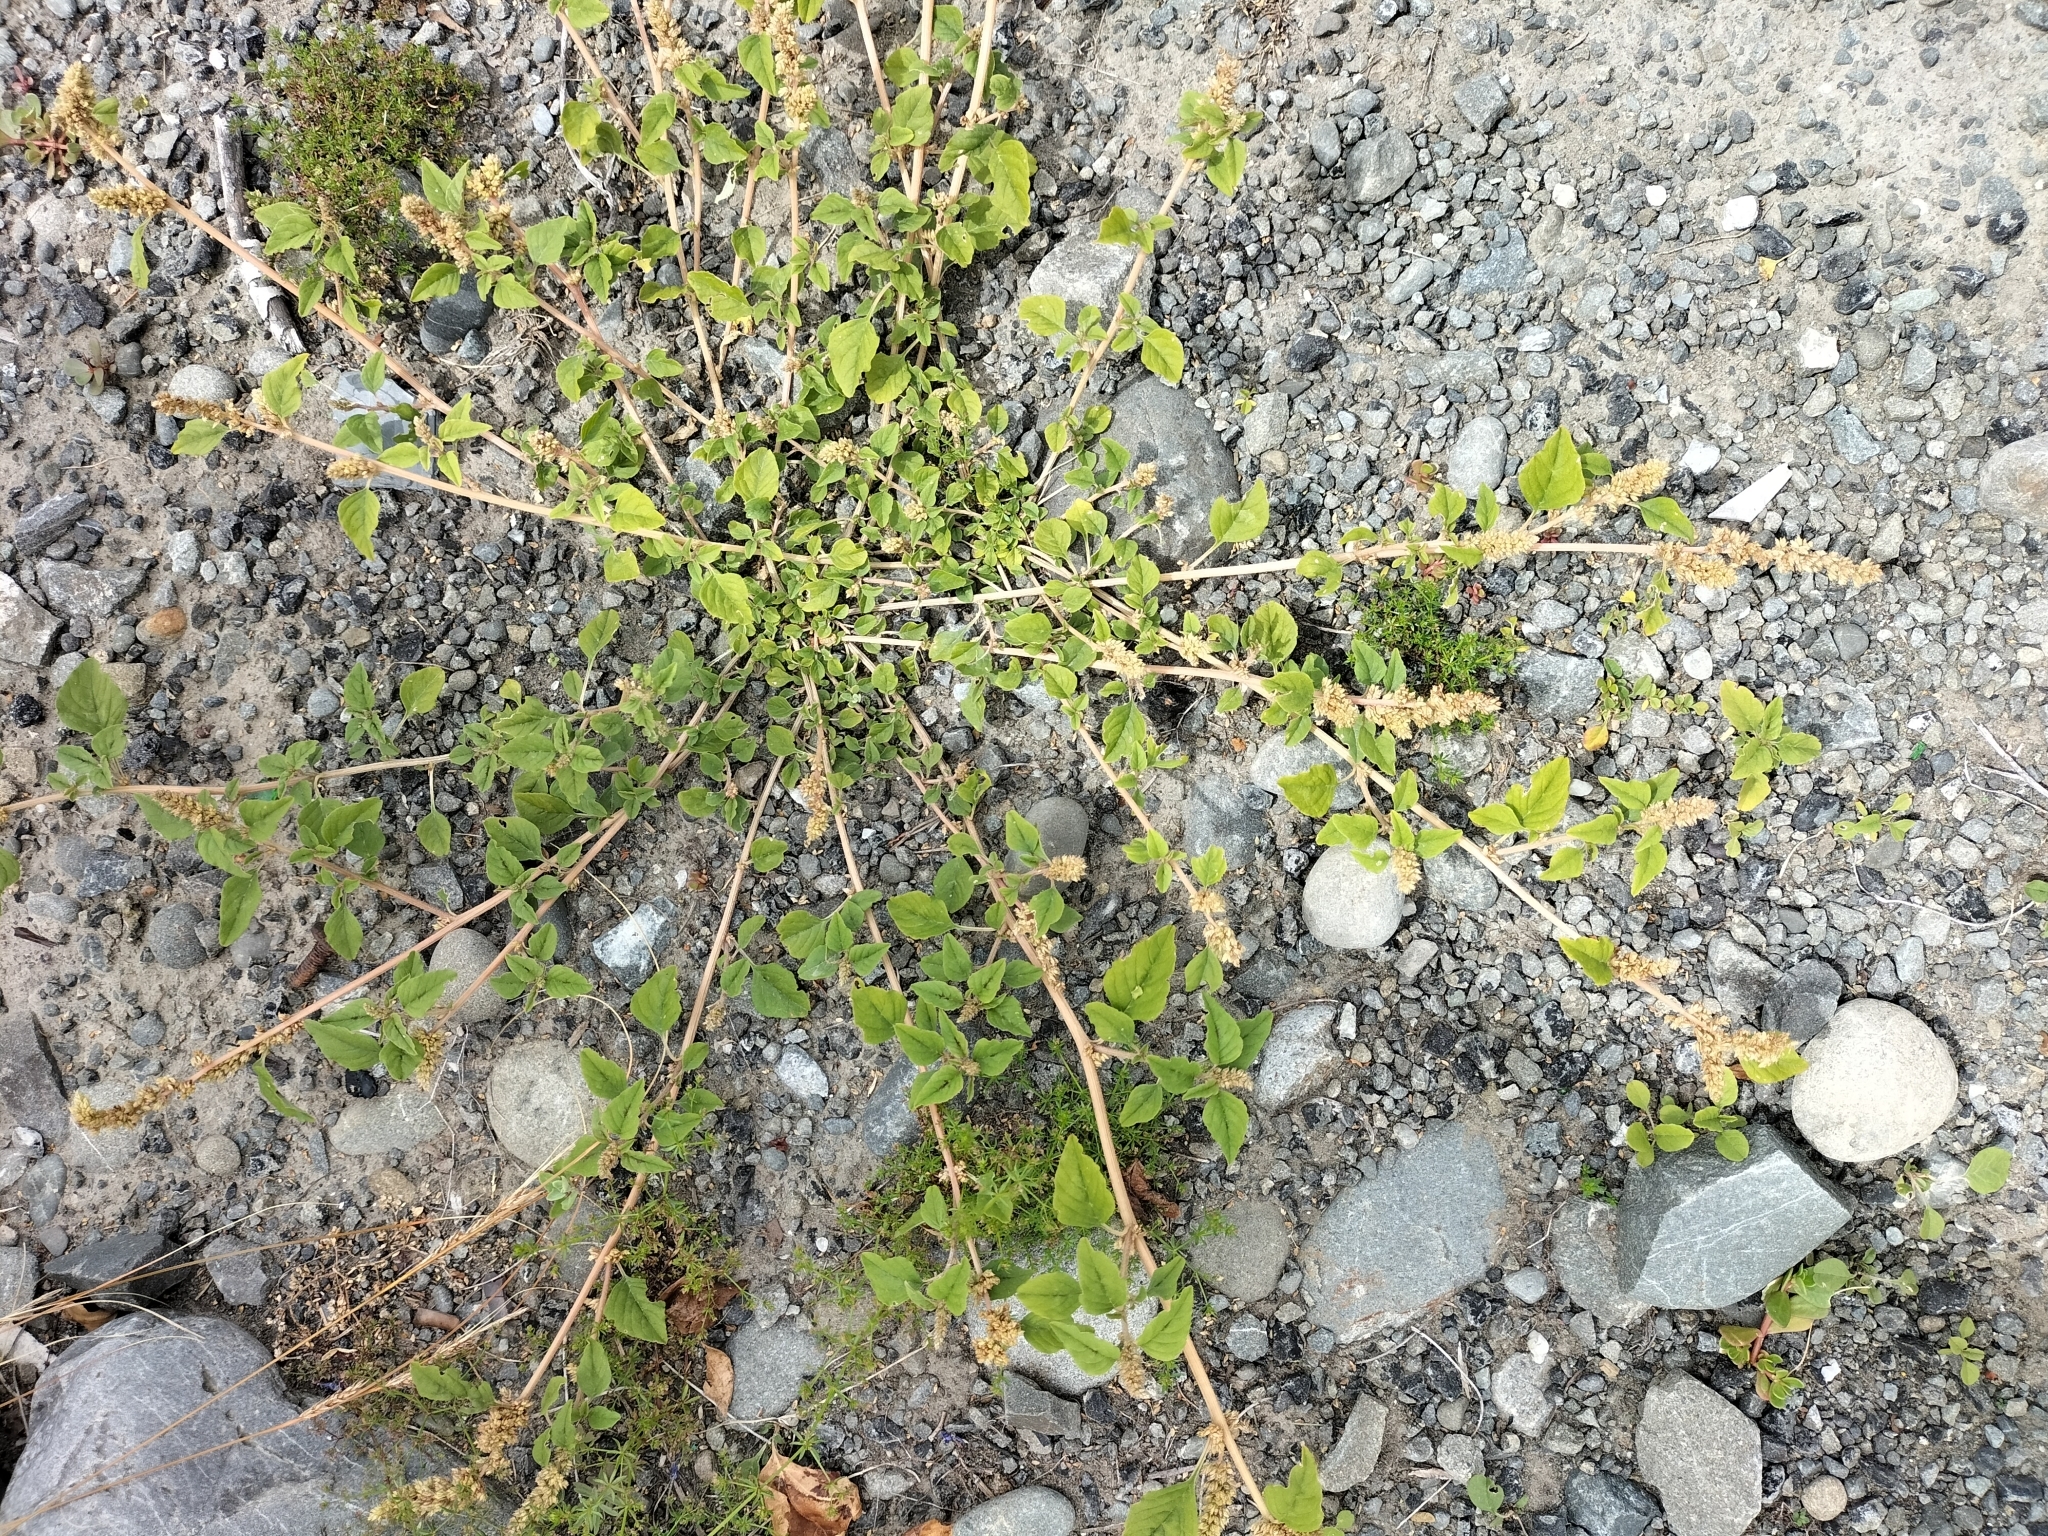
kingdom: Plantae
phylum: Tracheophyta
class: Magnoliopsida
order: Caryophyllales
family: Amaranthaceae
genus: Amaranthus
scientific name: Amaranthus deflexus
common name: Perennial pigweed
